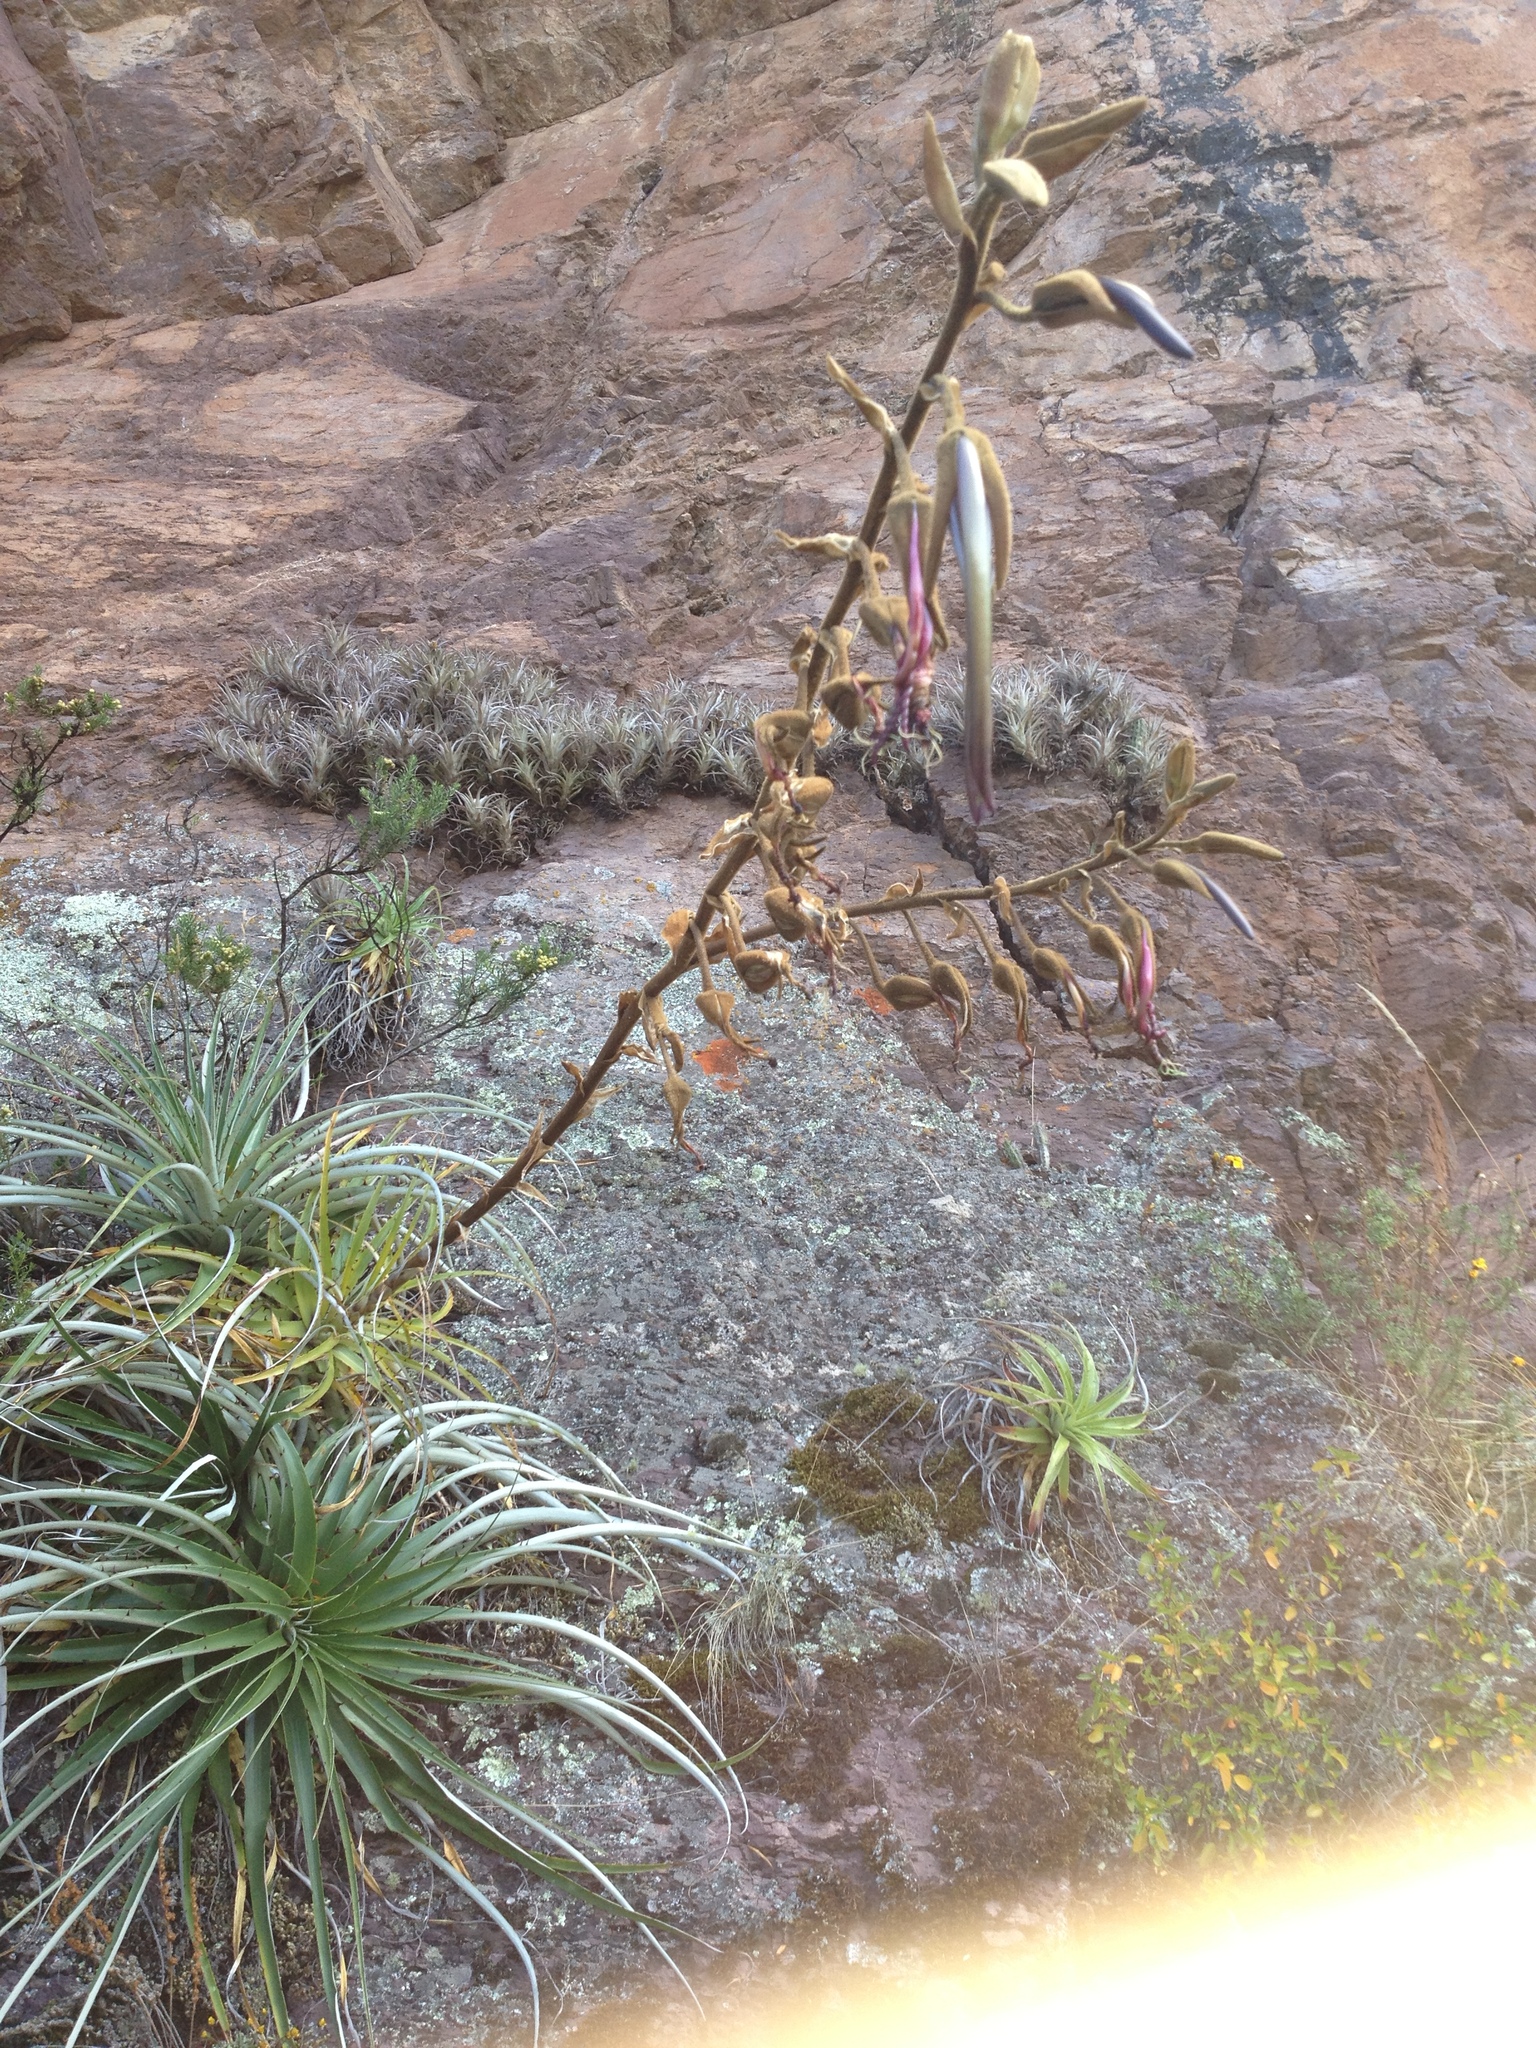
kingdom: Plantae
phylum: Tracheophyta
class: Liliopsida
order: Poales
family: Bromeliaceae
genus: Puya
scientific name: Puya ferruginea
